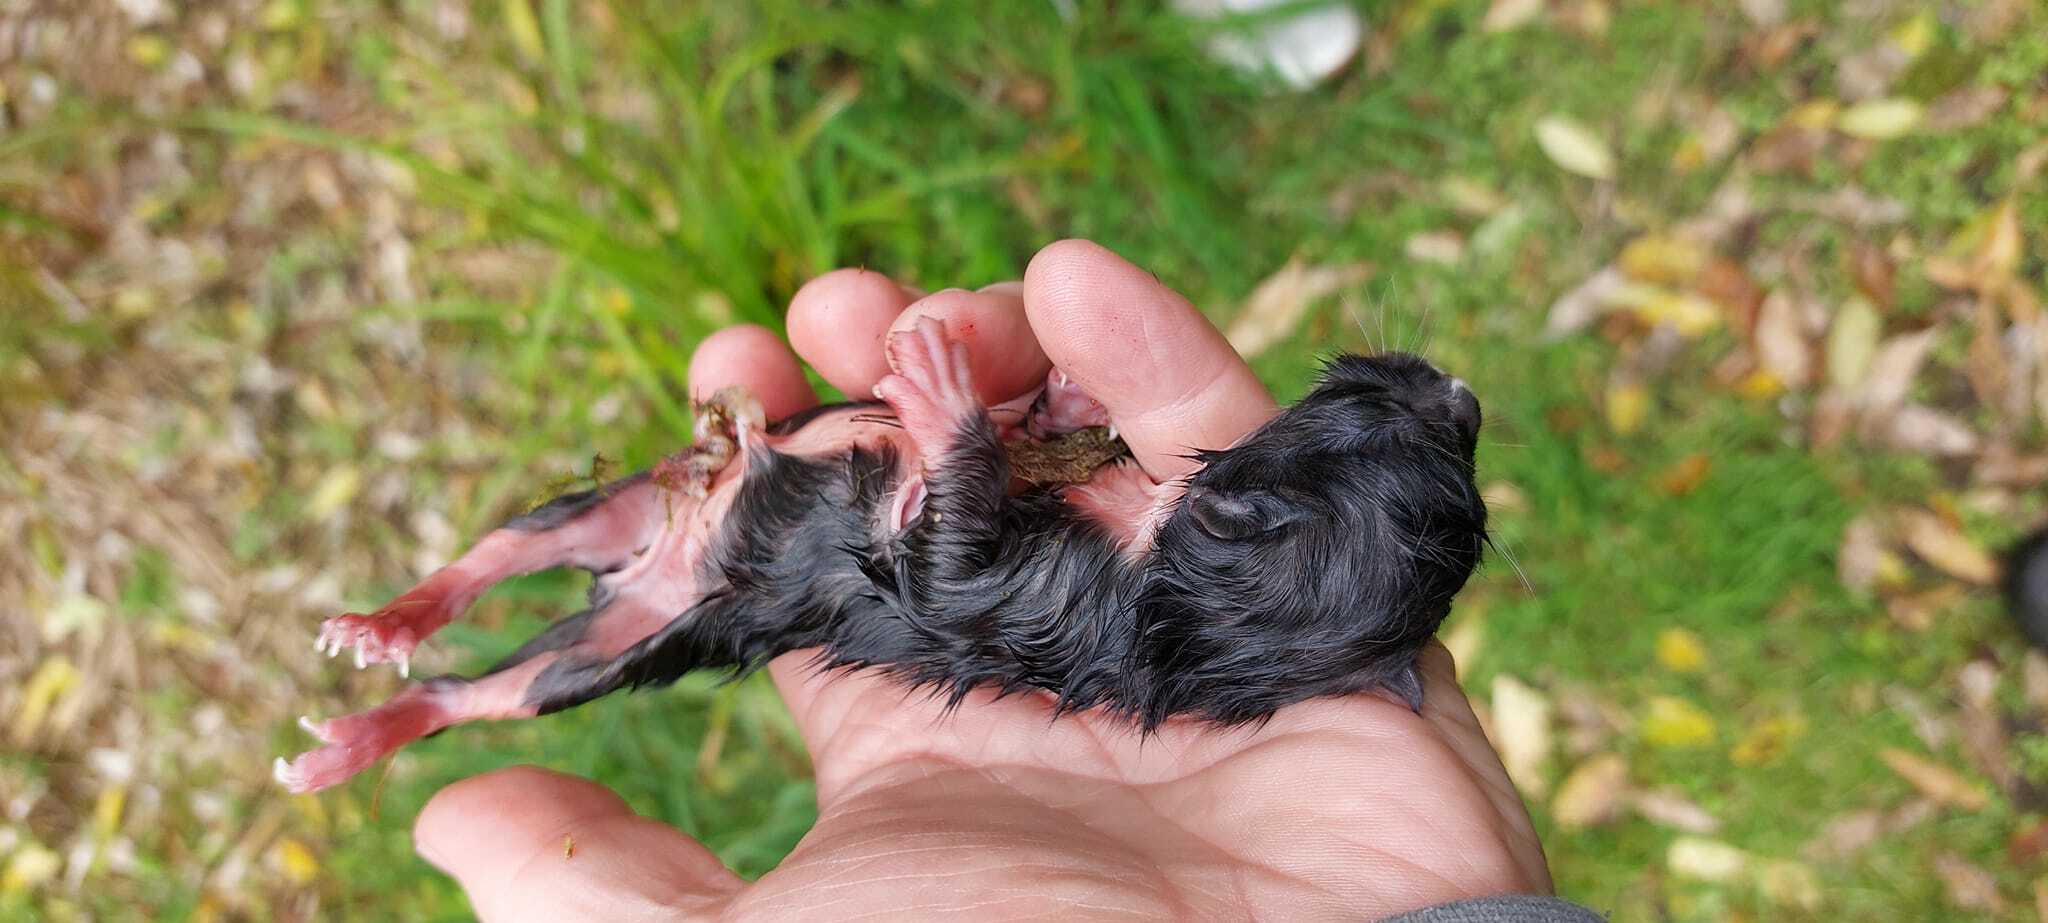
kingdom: Animalia
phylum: Chordata
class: Mammalia
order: Carnivora
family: Felidae
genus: Felis
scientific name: Felis catus
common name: Domestic cat
